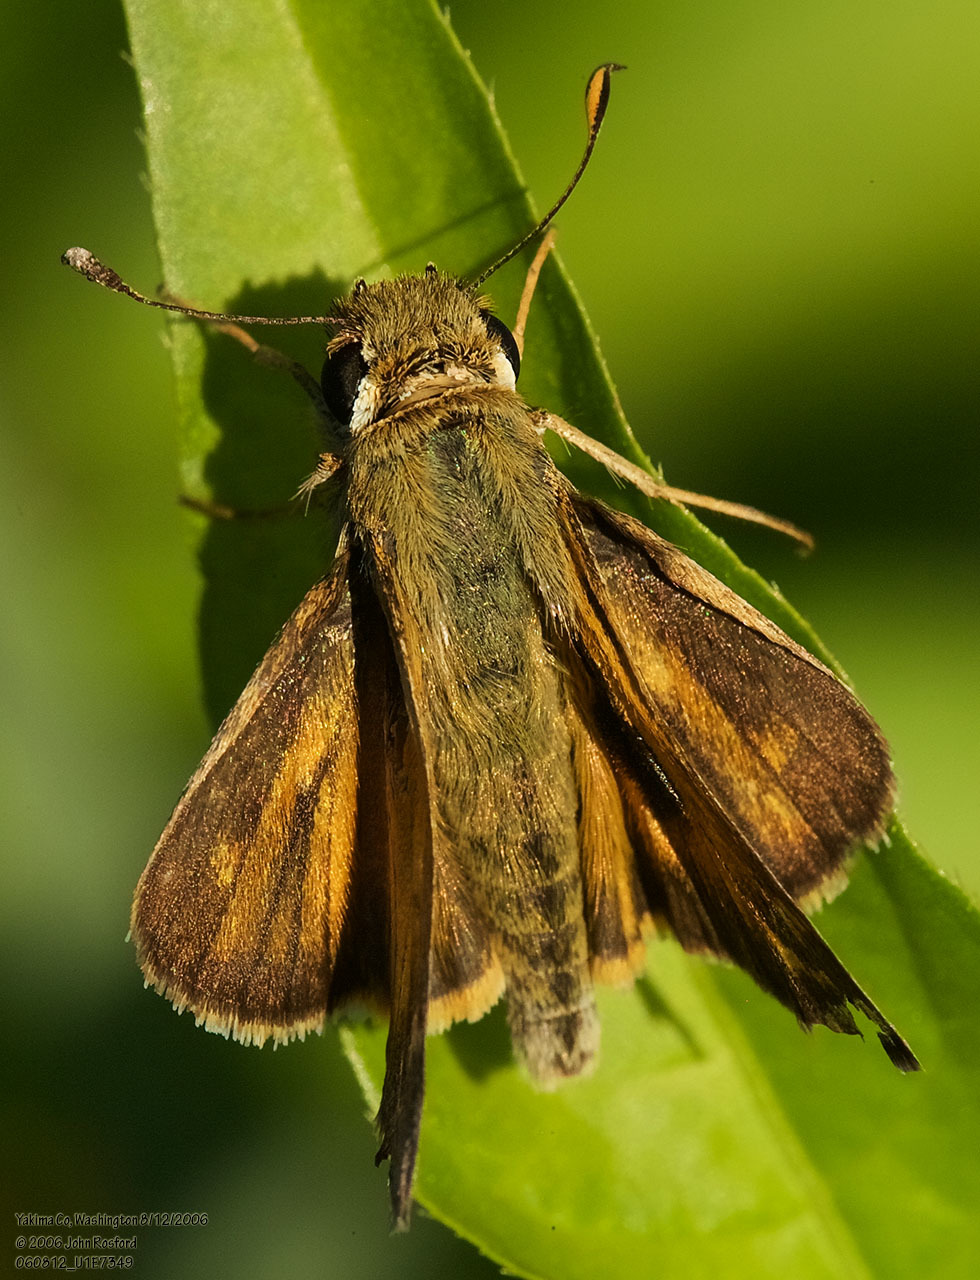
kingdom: Animalia
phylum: Arthropoda
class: Insecta
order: Lepidoptera
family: Hesperiidae
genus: Atalopedes
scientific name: Atalopedes campestris
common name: Sachem
